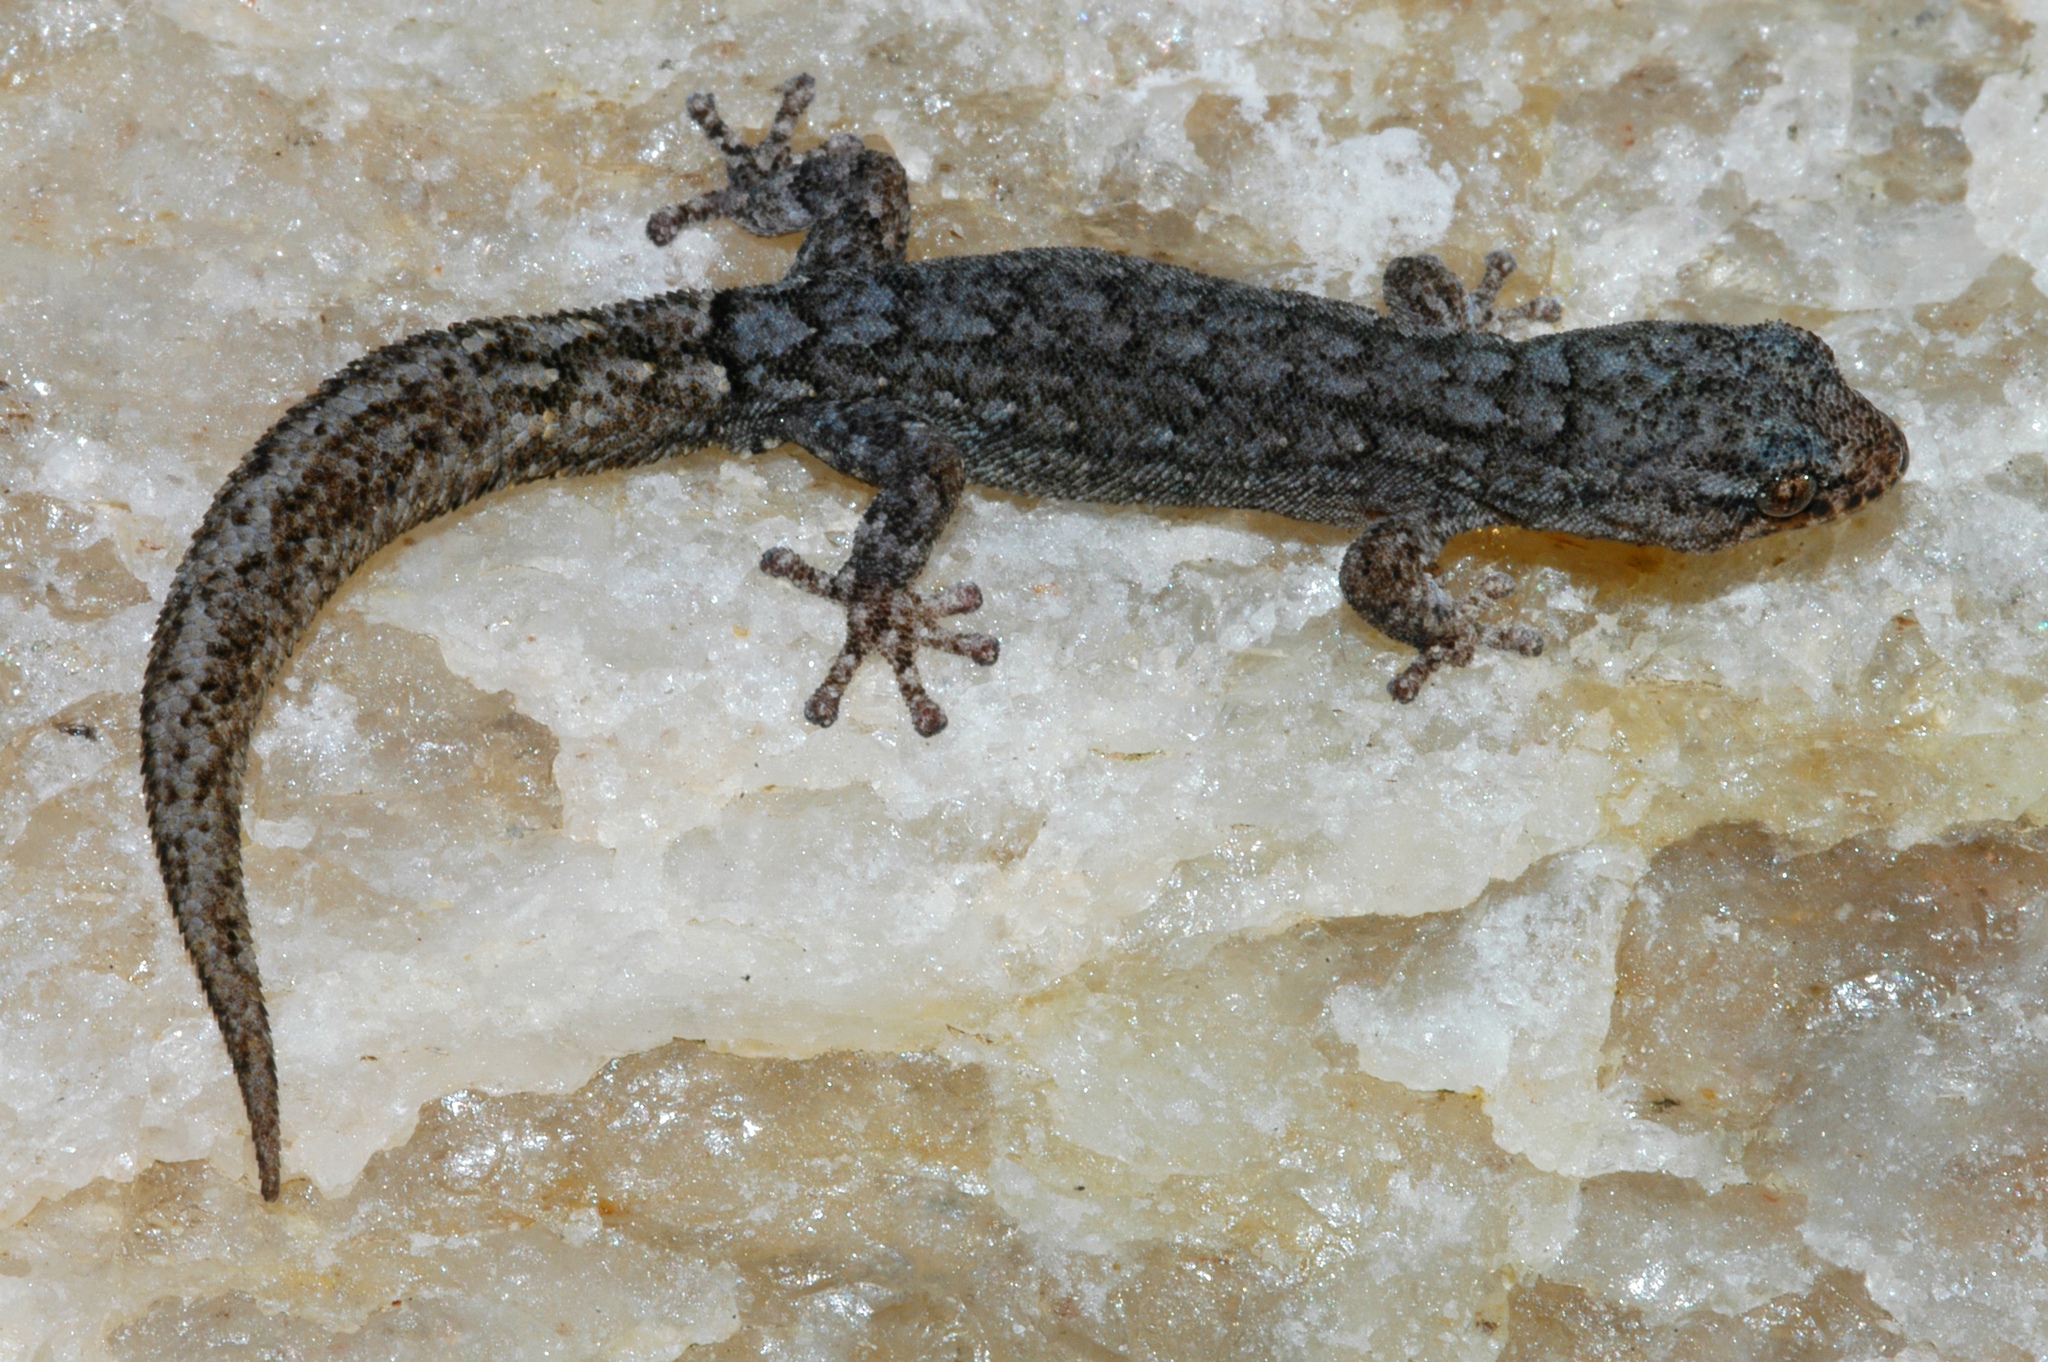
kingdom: Animalia
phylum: Chordata
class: Squamata
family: Gekkonidae
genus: Goggia
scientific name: Goggia lineata
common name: Striped dwarf leaf-toed gecko
